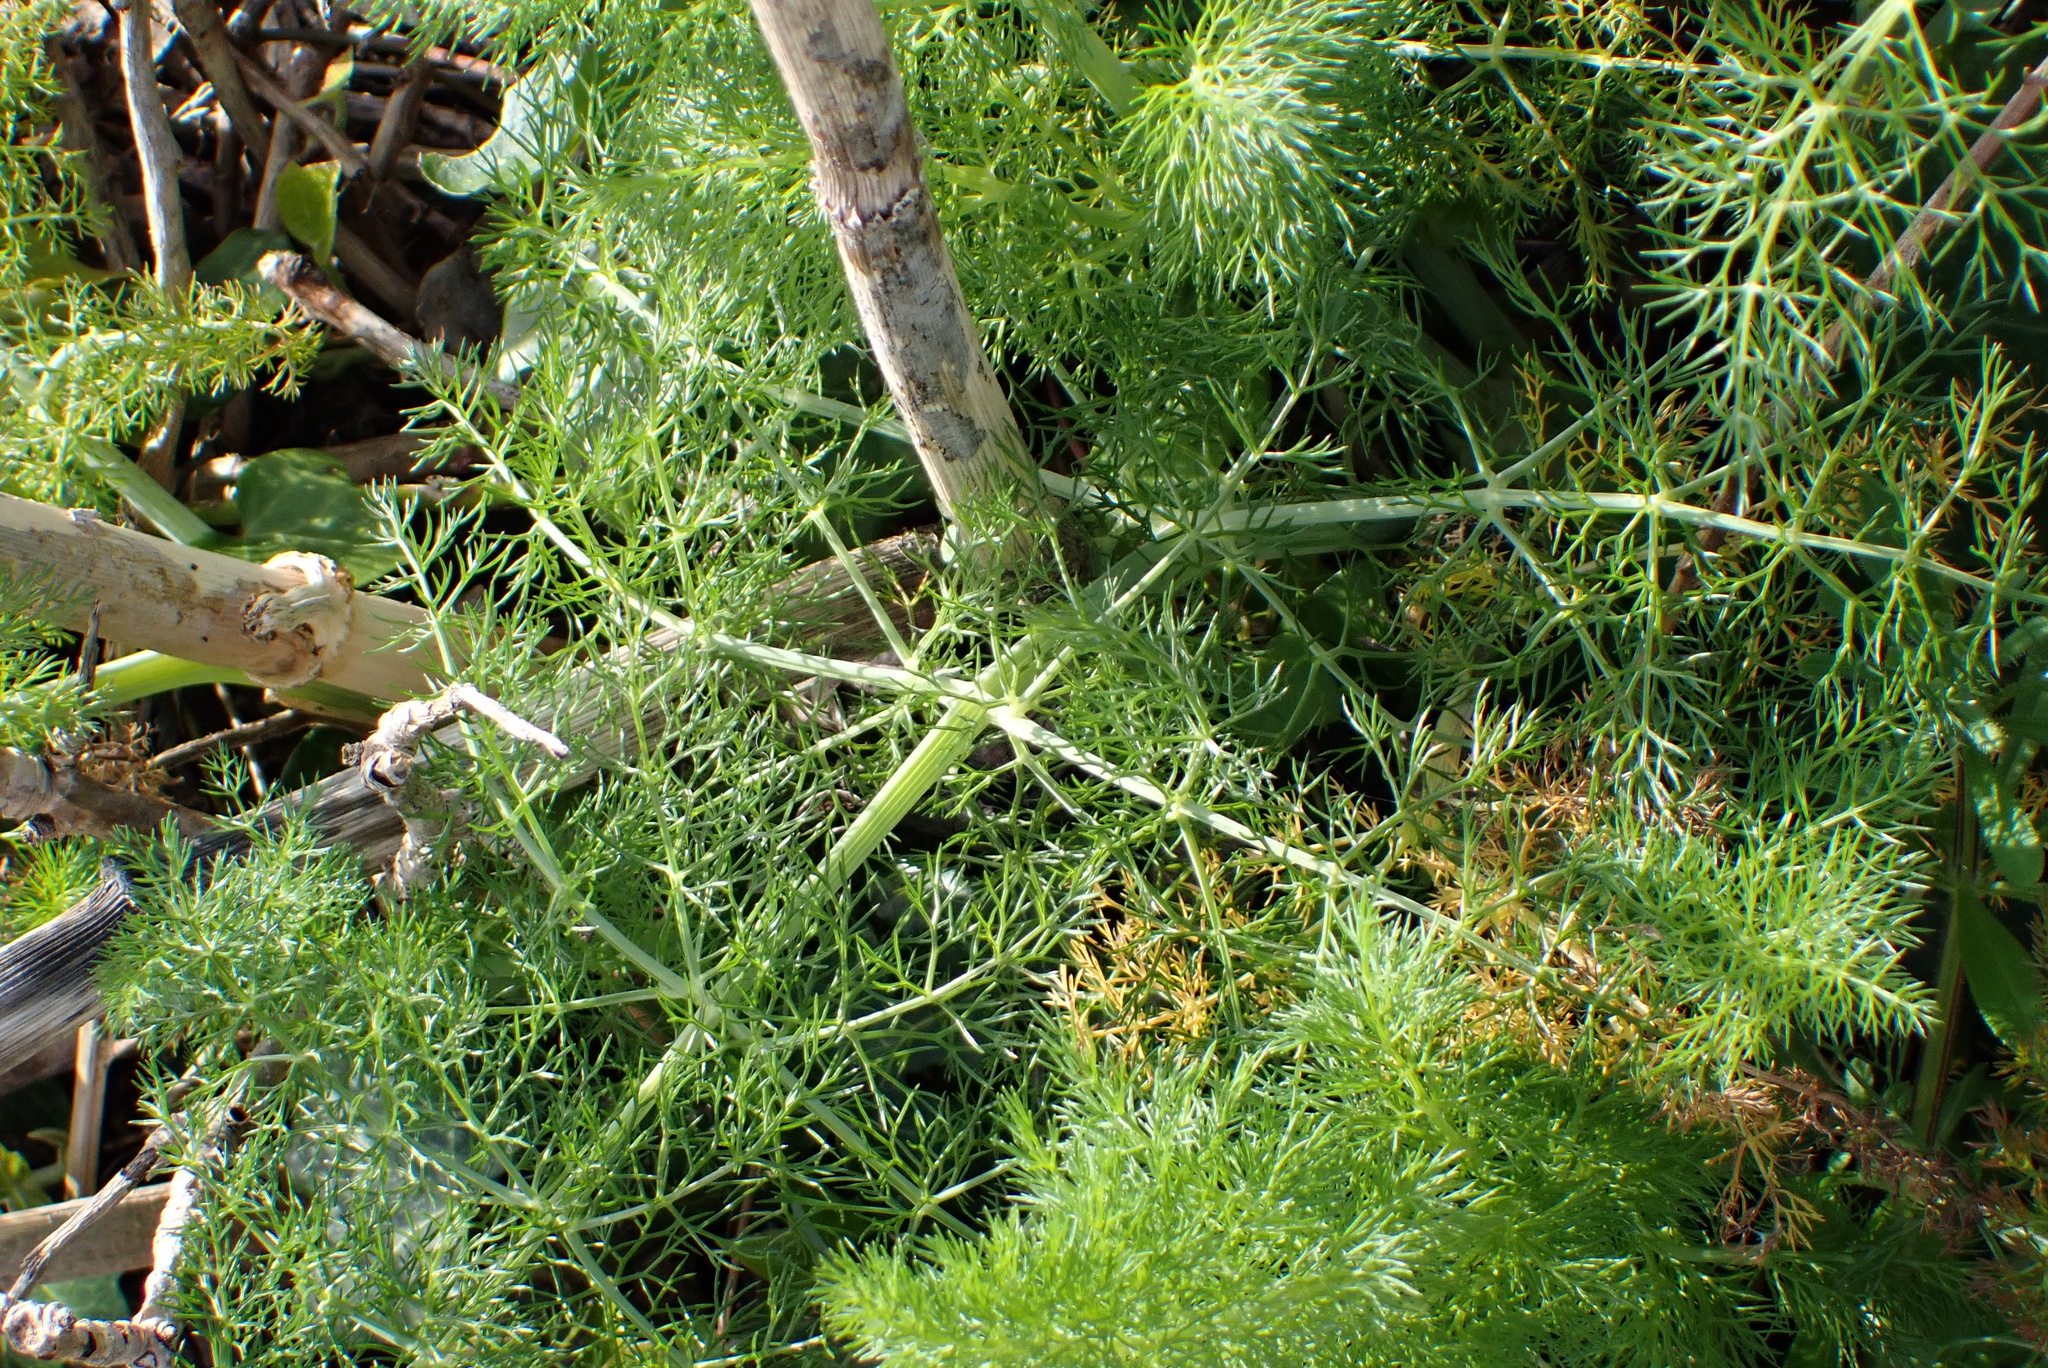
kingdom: Plantae
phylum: Tracheophyta
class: Magnoliopsida
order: Apiales
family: Apiaceae
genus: Foeniculum
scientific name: Foeniculum vulgare
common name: Fennel
